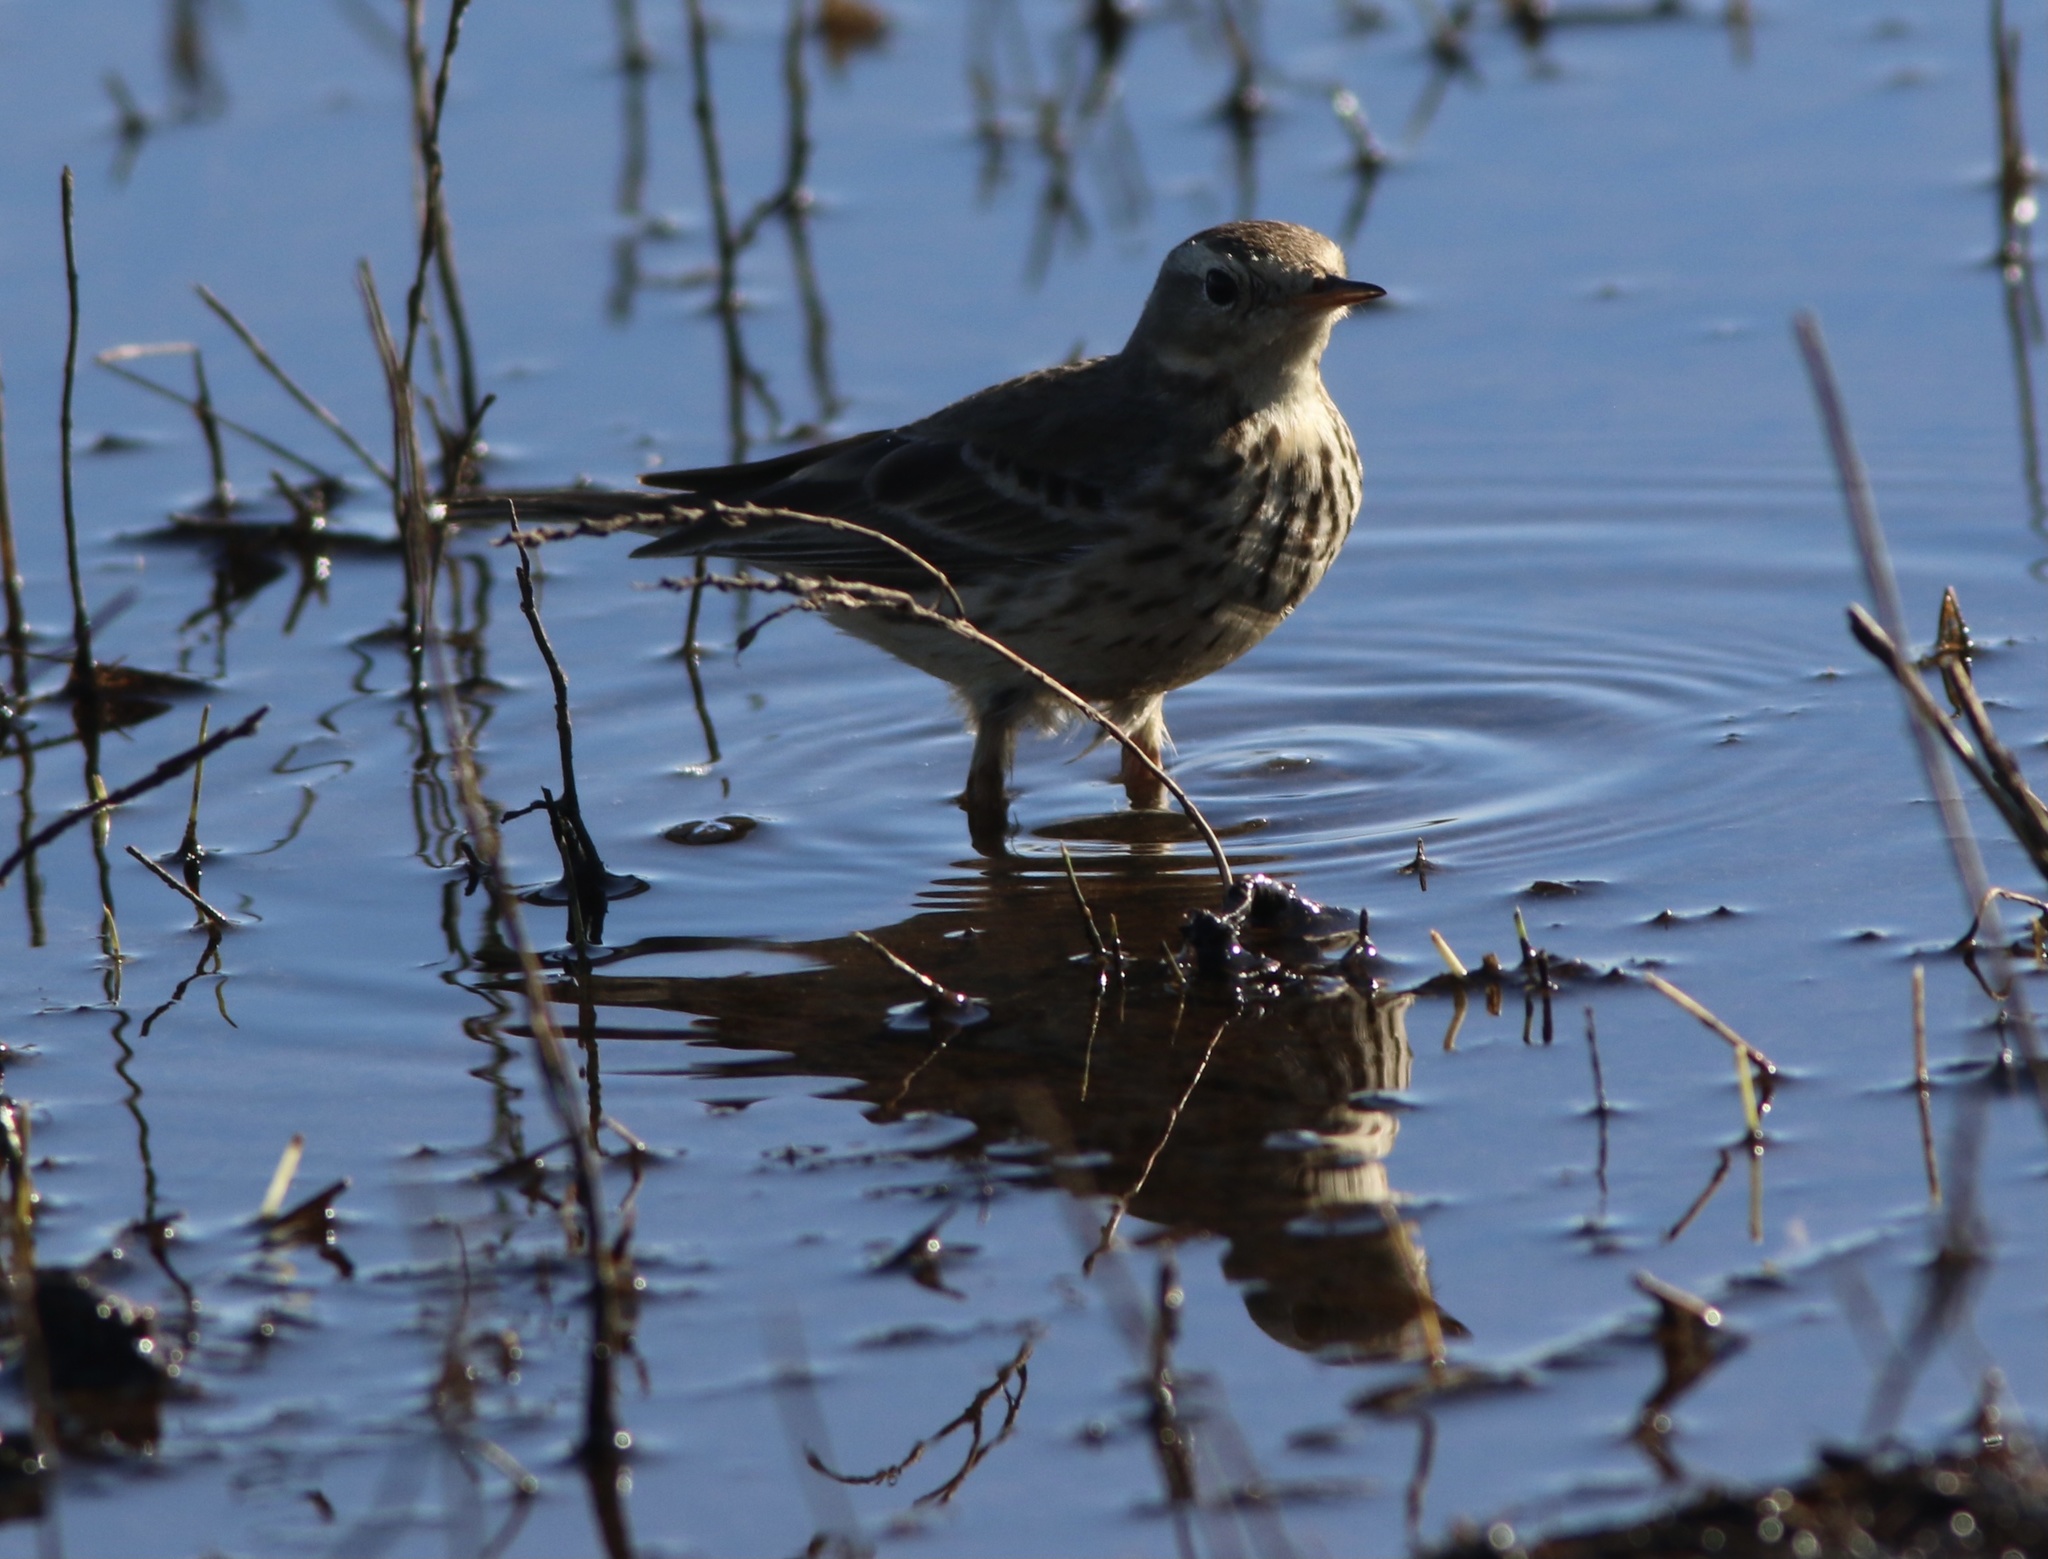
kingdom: Animalia
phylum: Chordata
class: Aves
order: Passeriformes
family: Motacillidae
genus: Anthus
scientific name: Anthus rubescens
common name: Buff-bellied pipit
